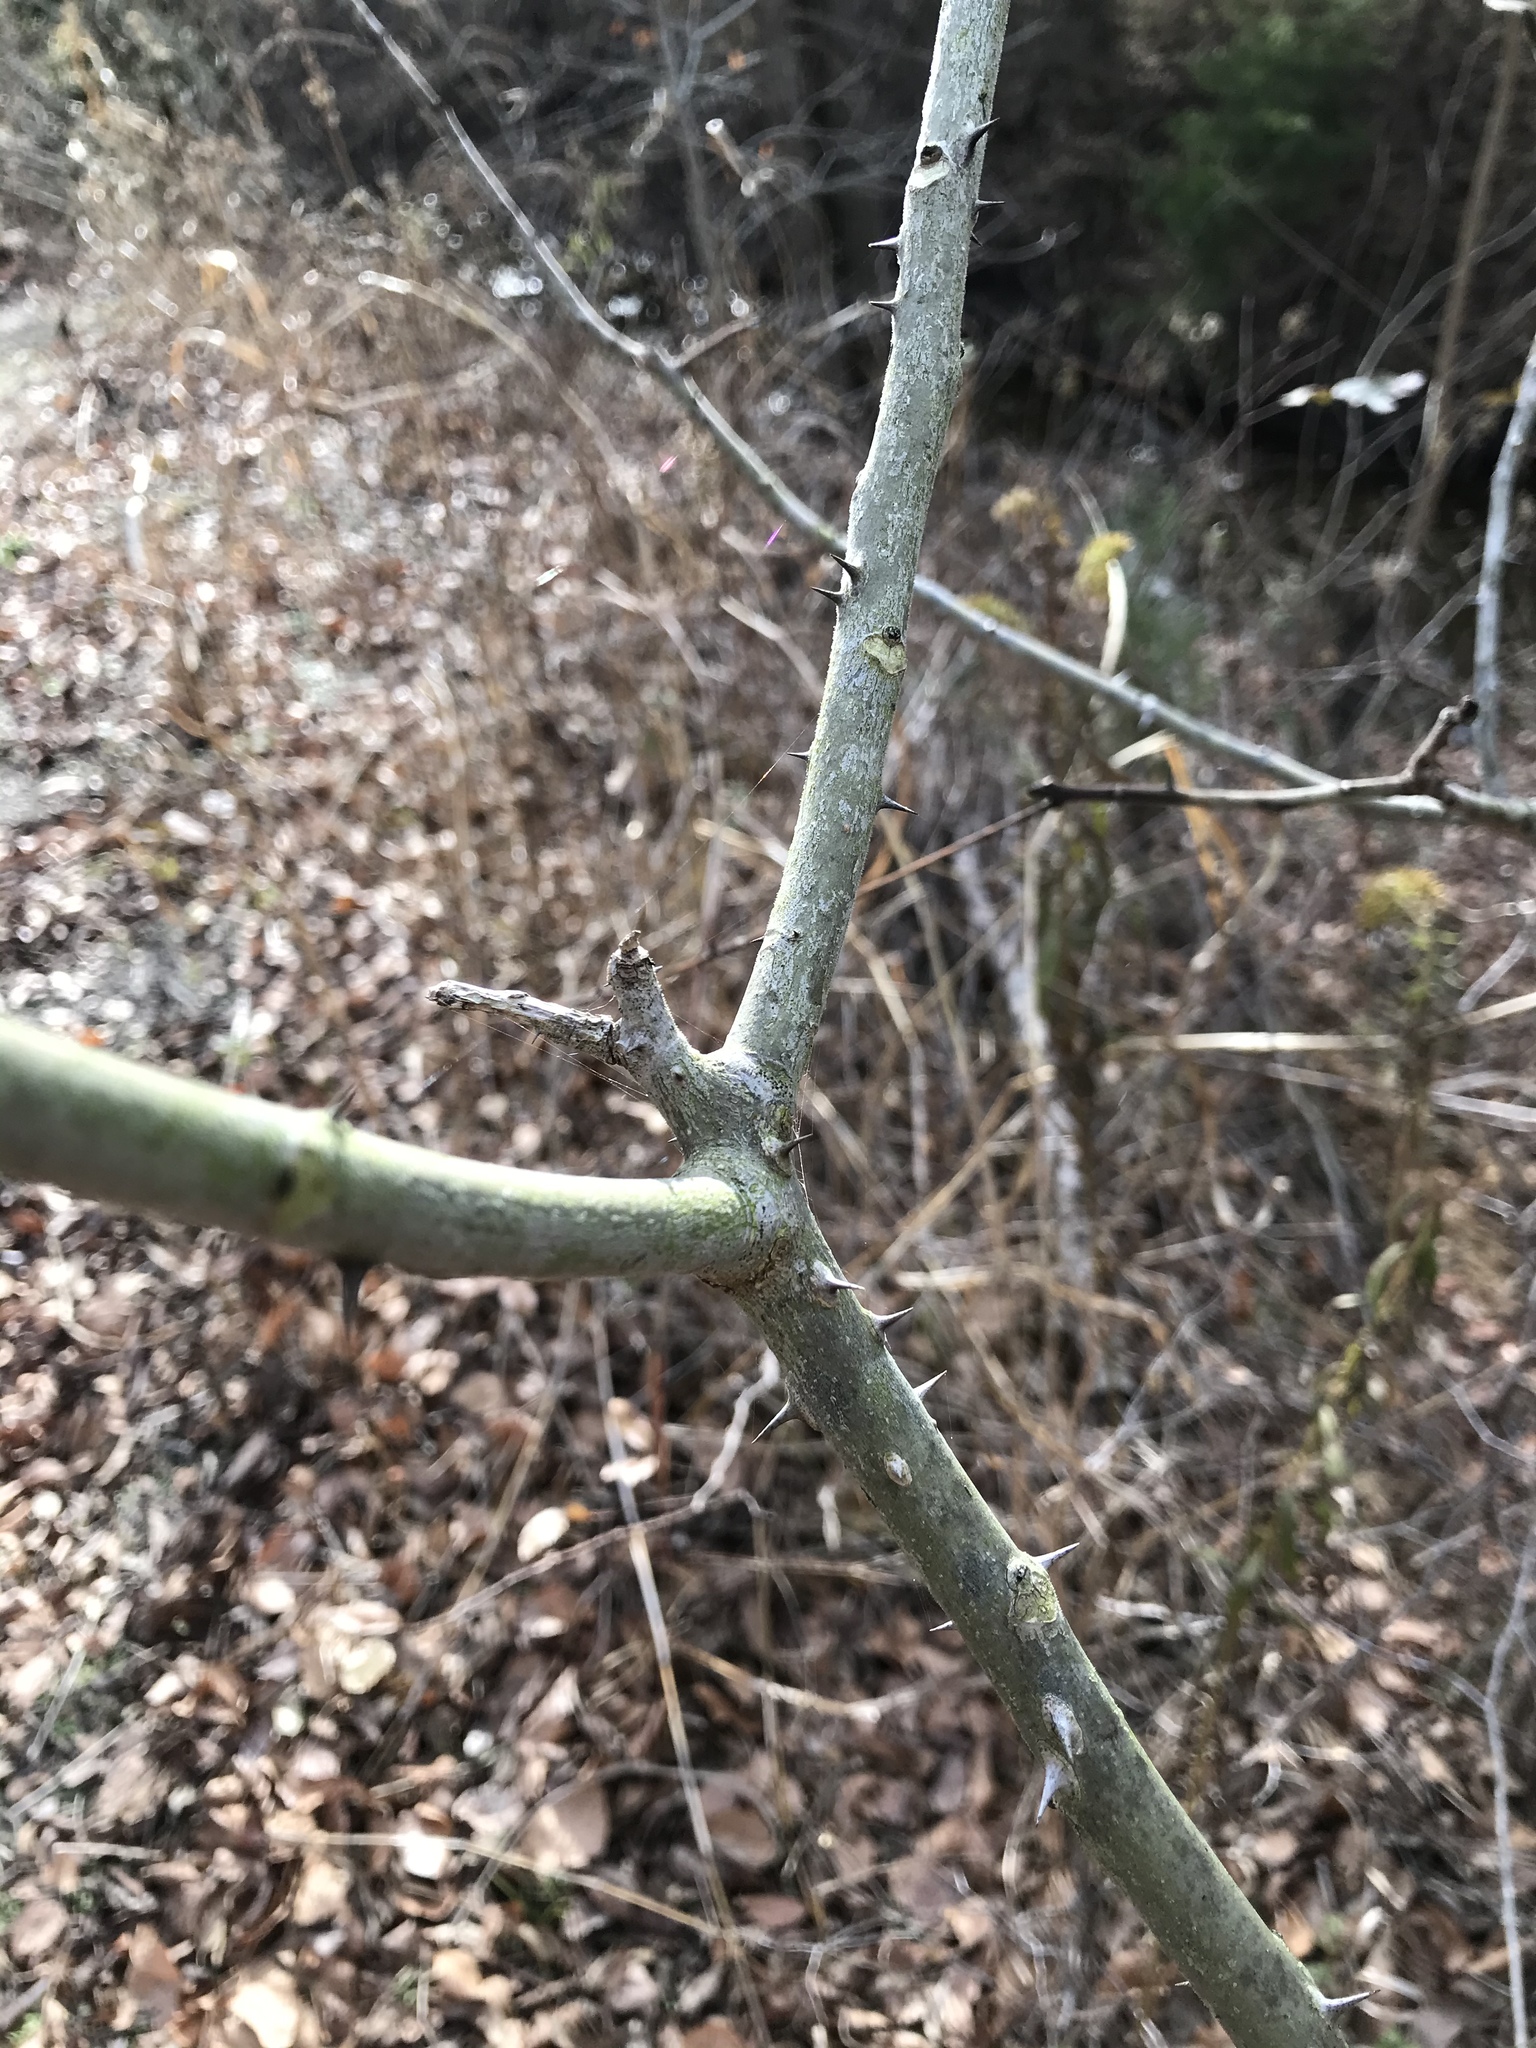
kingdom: Plantae
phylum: Tracheophyta
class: Magnoliopsida
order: Sapindales
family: Rutaceae
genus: Zanthoxylum
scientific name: Zanthoxylum clava-herculis
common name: Hercules'-club
